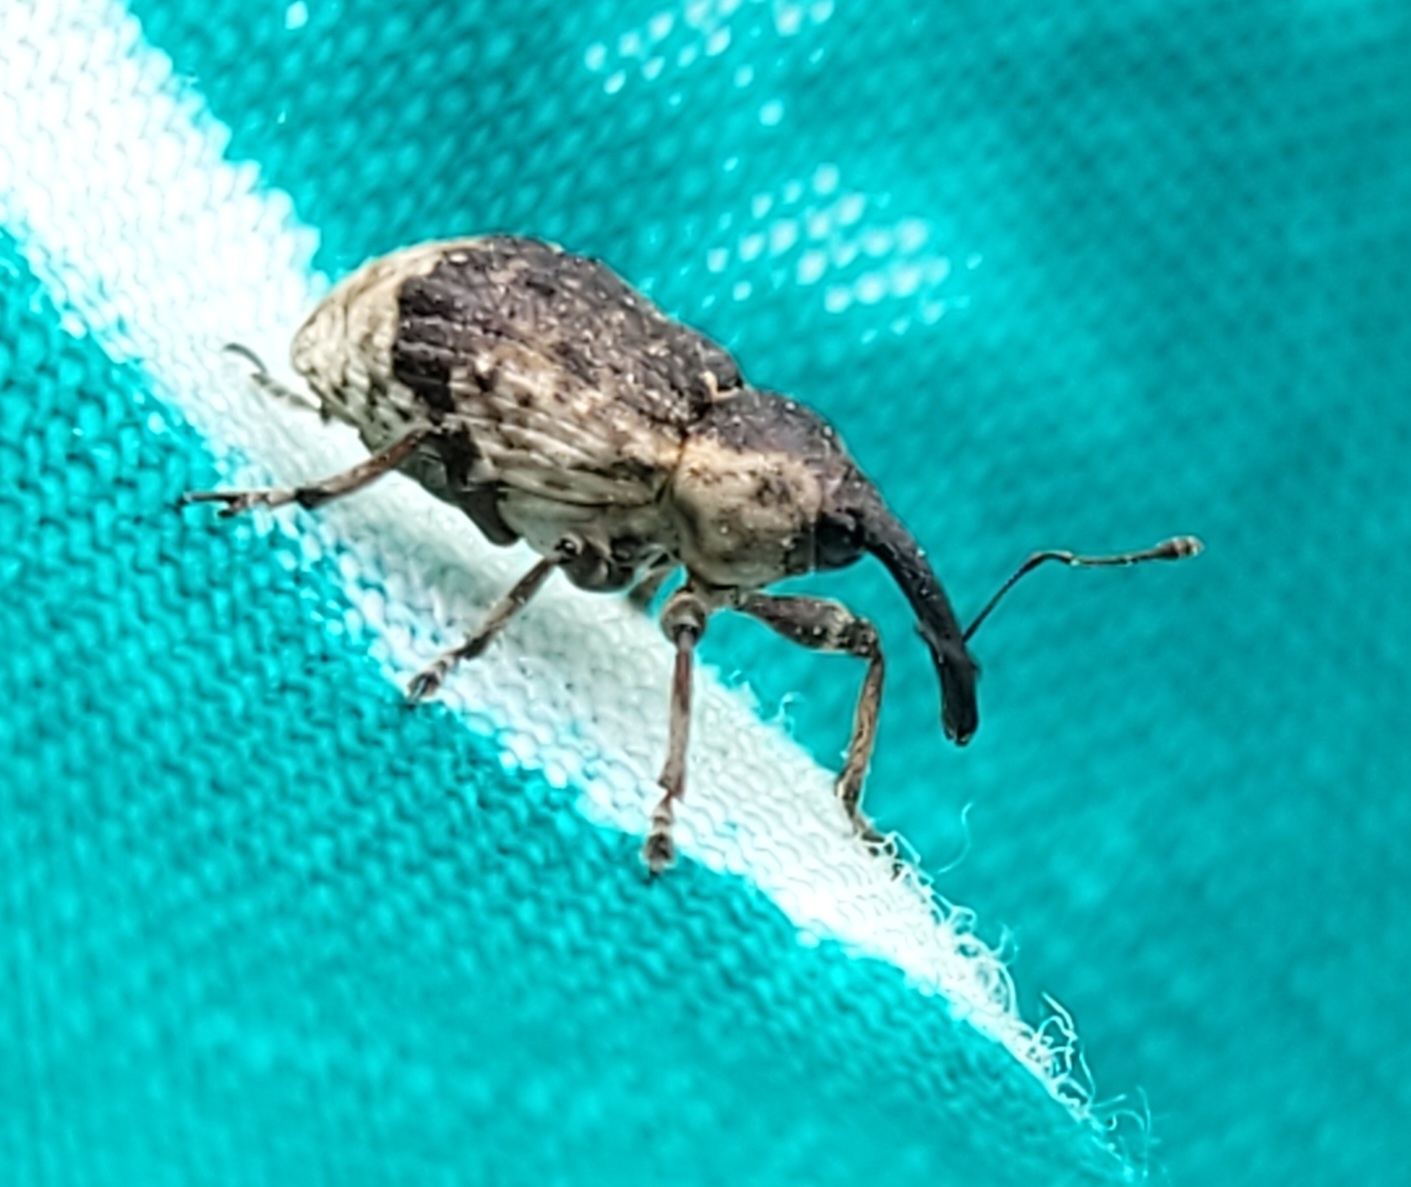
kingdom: Animalia
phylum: Arthropoda
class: Insecta
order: Coleoptera
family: Brachyceridae
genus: Grypus
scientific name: Grypus equiseti
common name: Horsetail weevil
